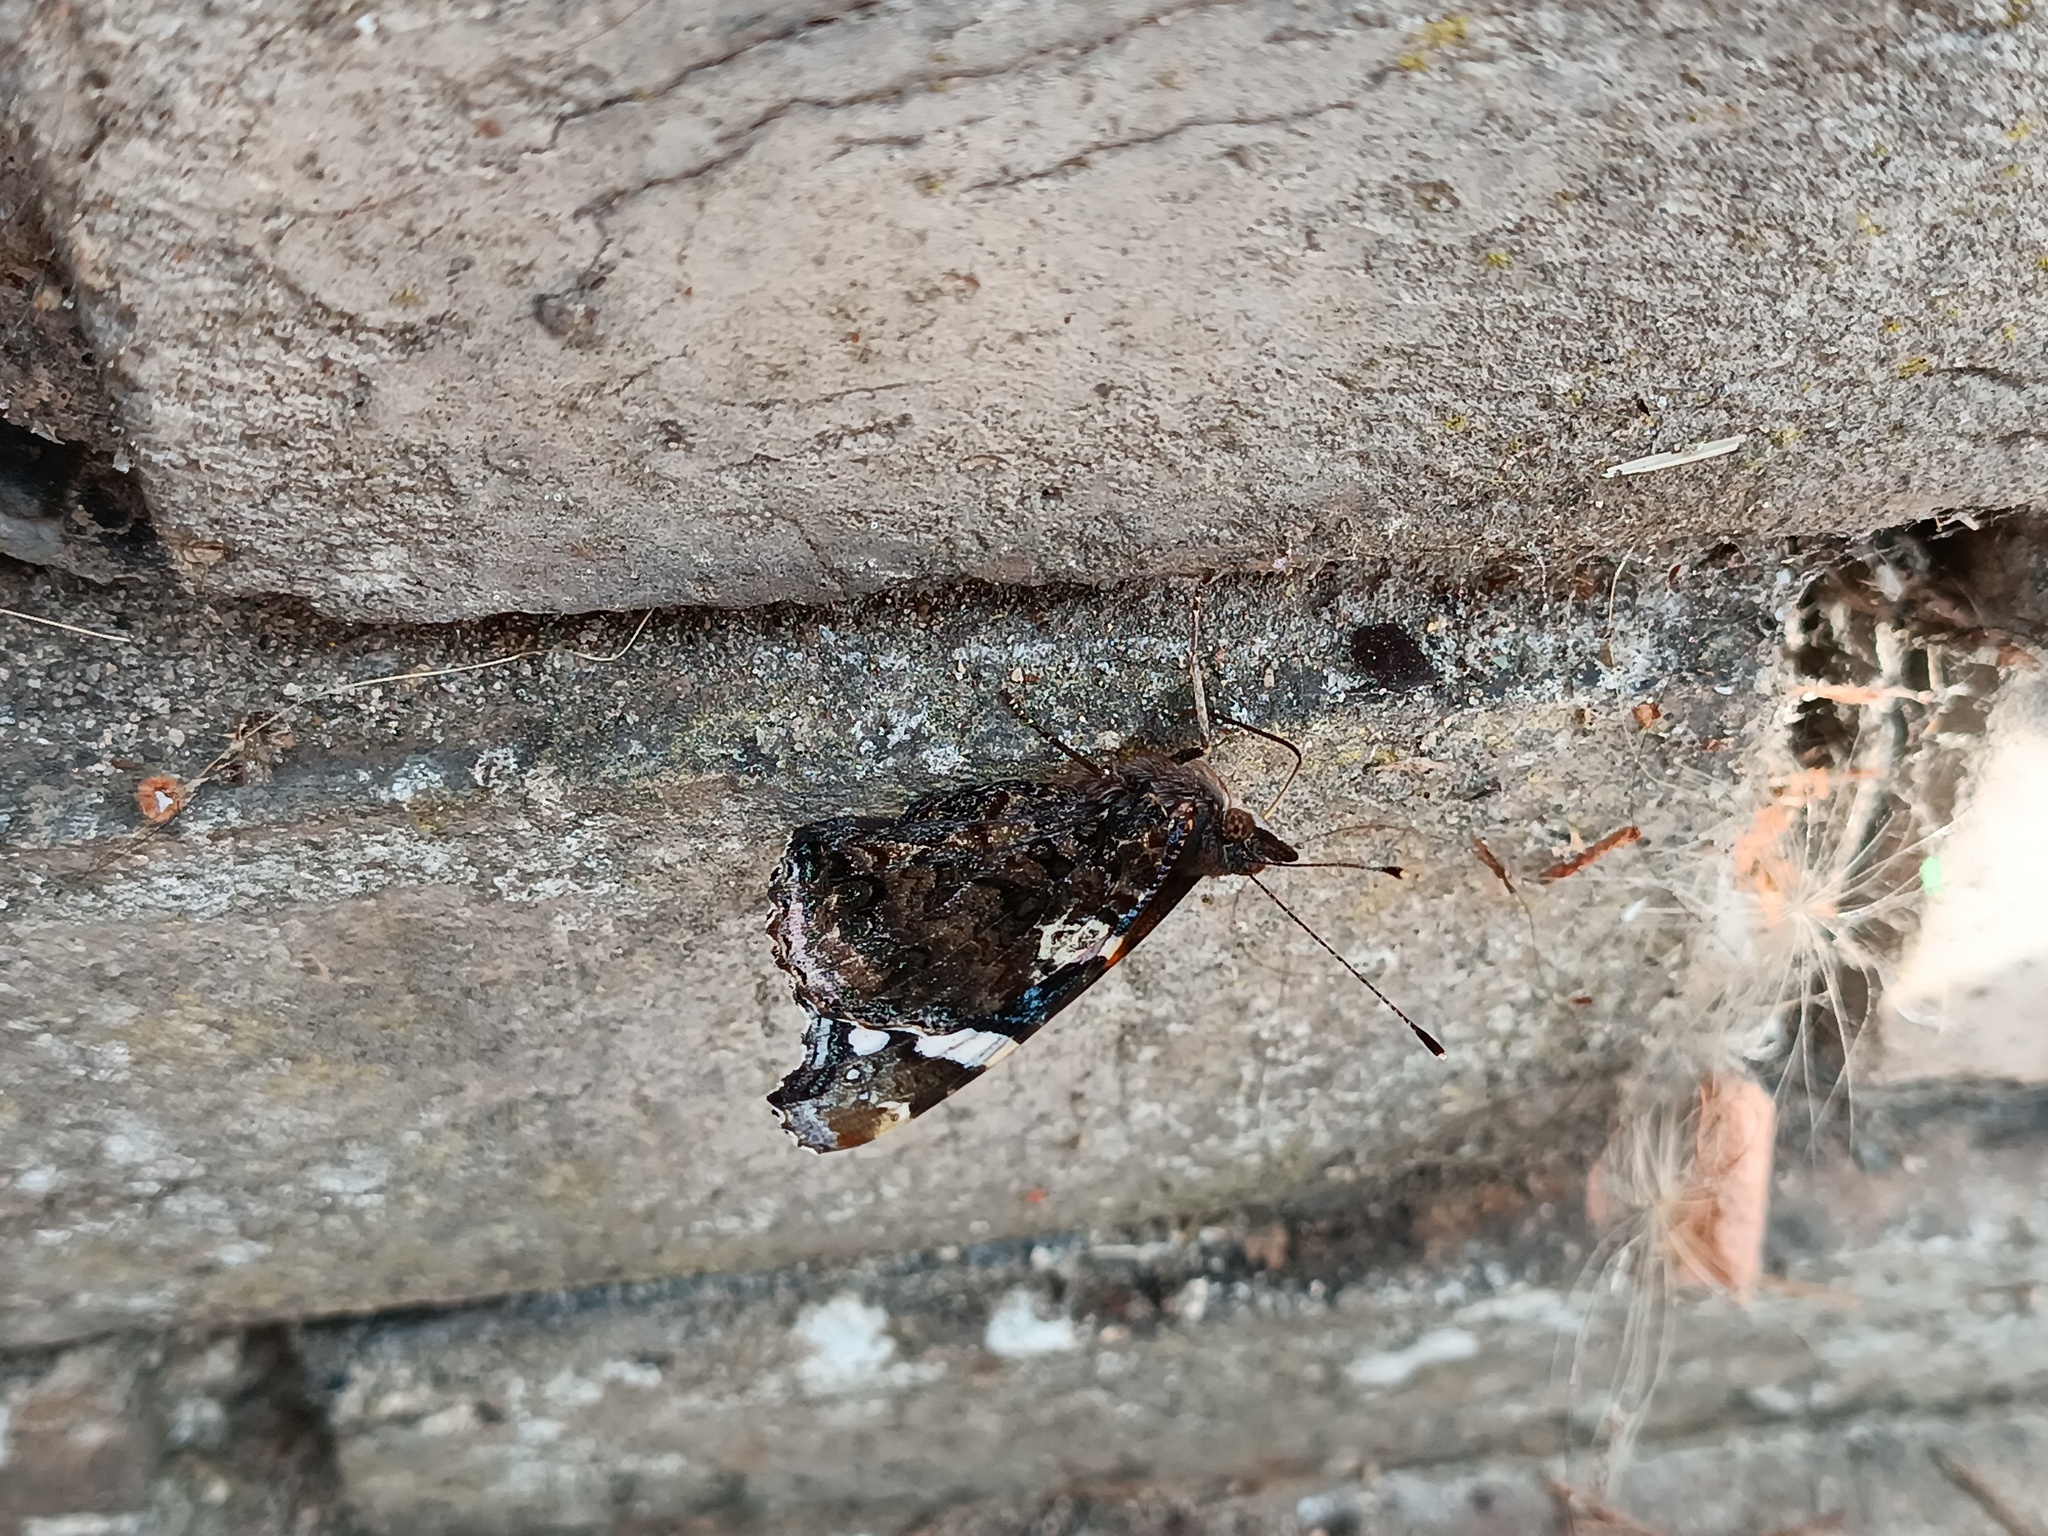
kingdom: Animalia
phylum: Arthropoda
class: Insecta
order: Lepidoptera
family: Nymphalidae
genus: Vanessa
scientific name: Vanessa atalanta
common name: Red admiral
